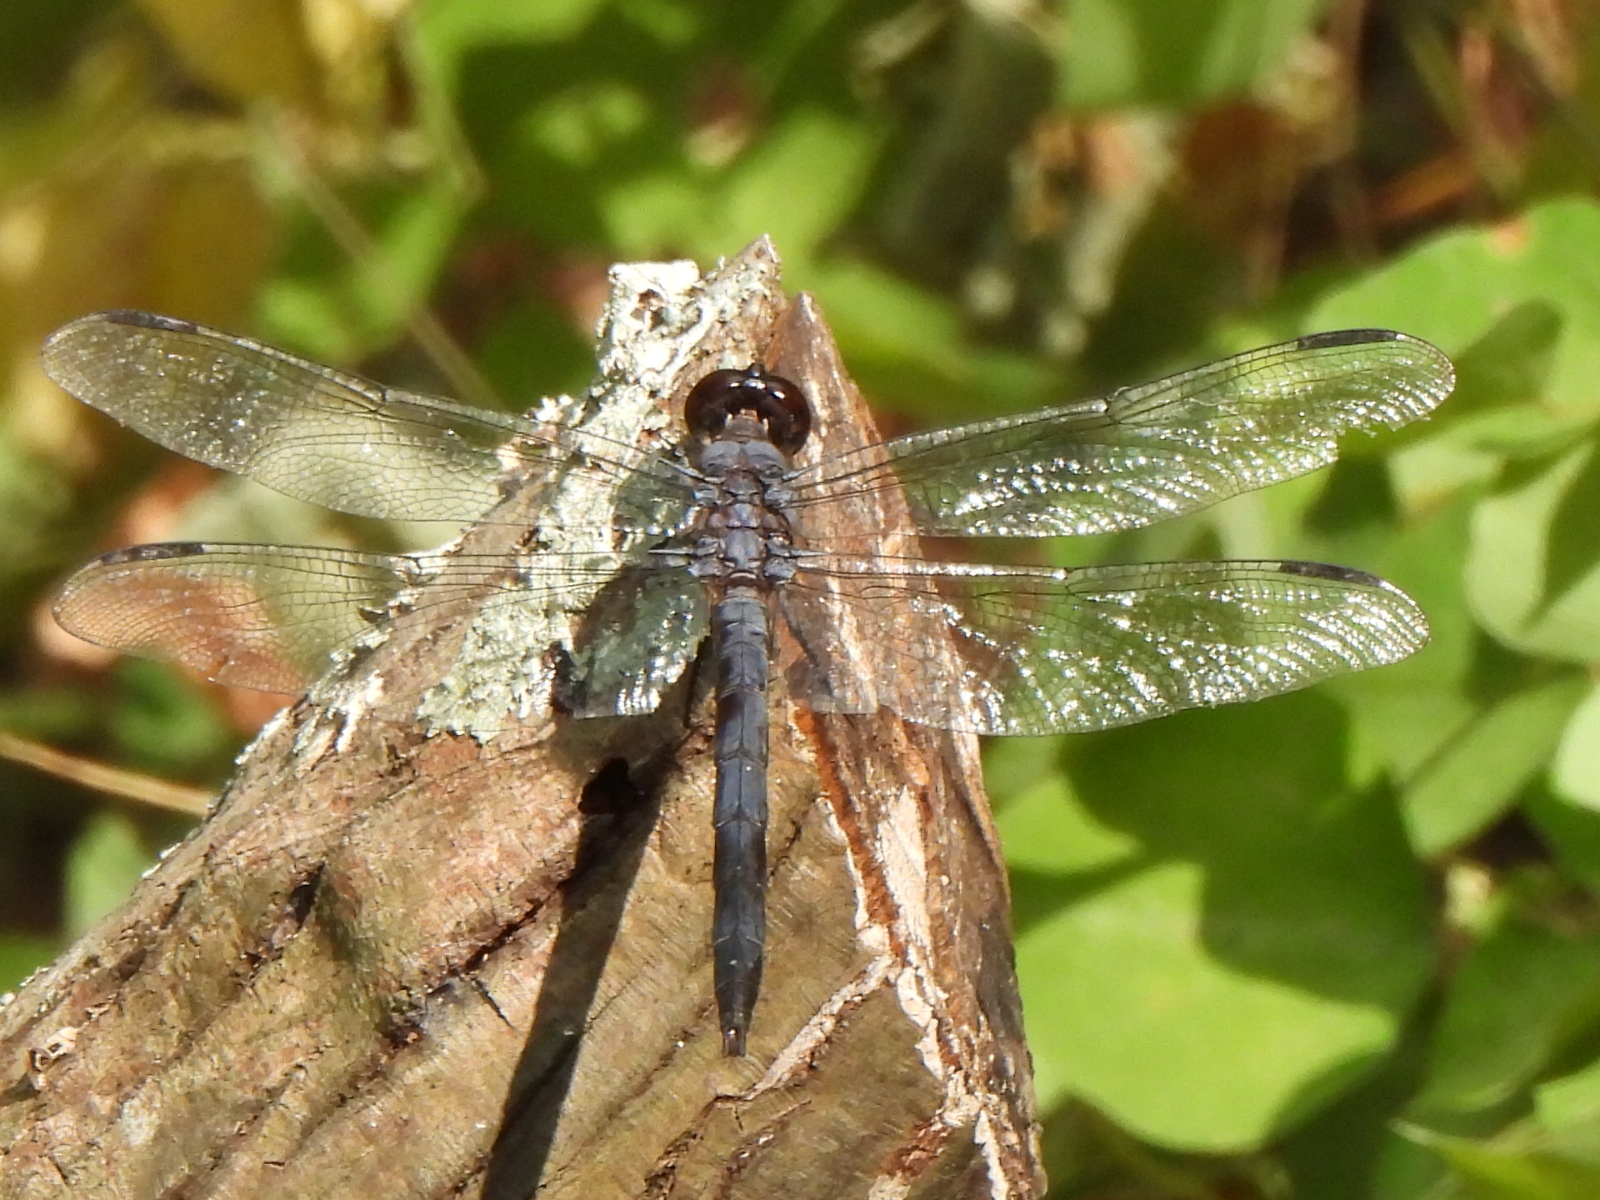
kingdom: Animalia
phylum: Arthropoda
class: Insecta
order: Odonata
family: Libellulidae
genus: Libellula
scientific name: Libellula incesta
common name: Slaty skimmer
